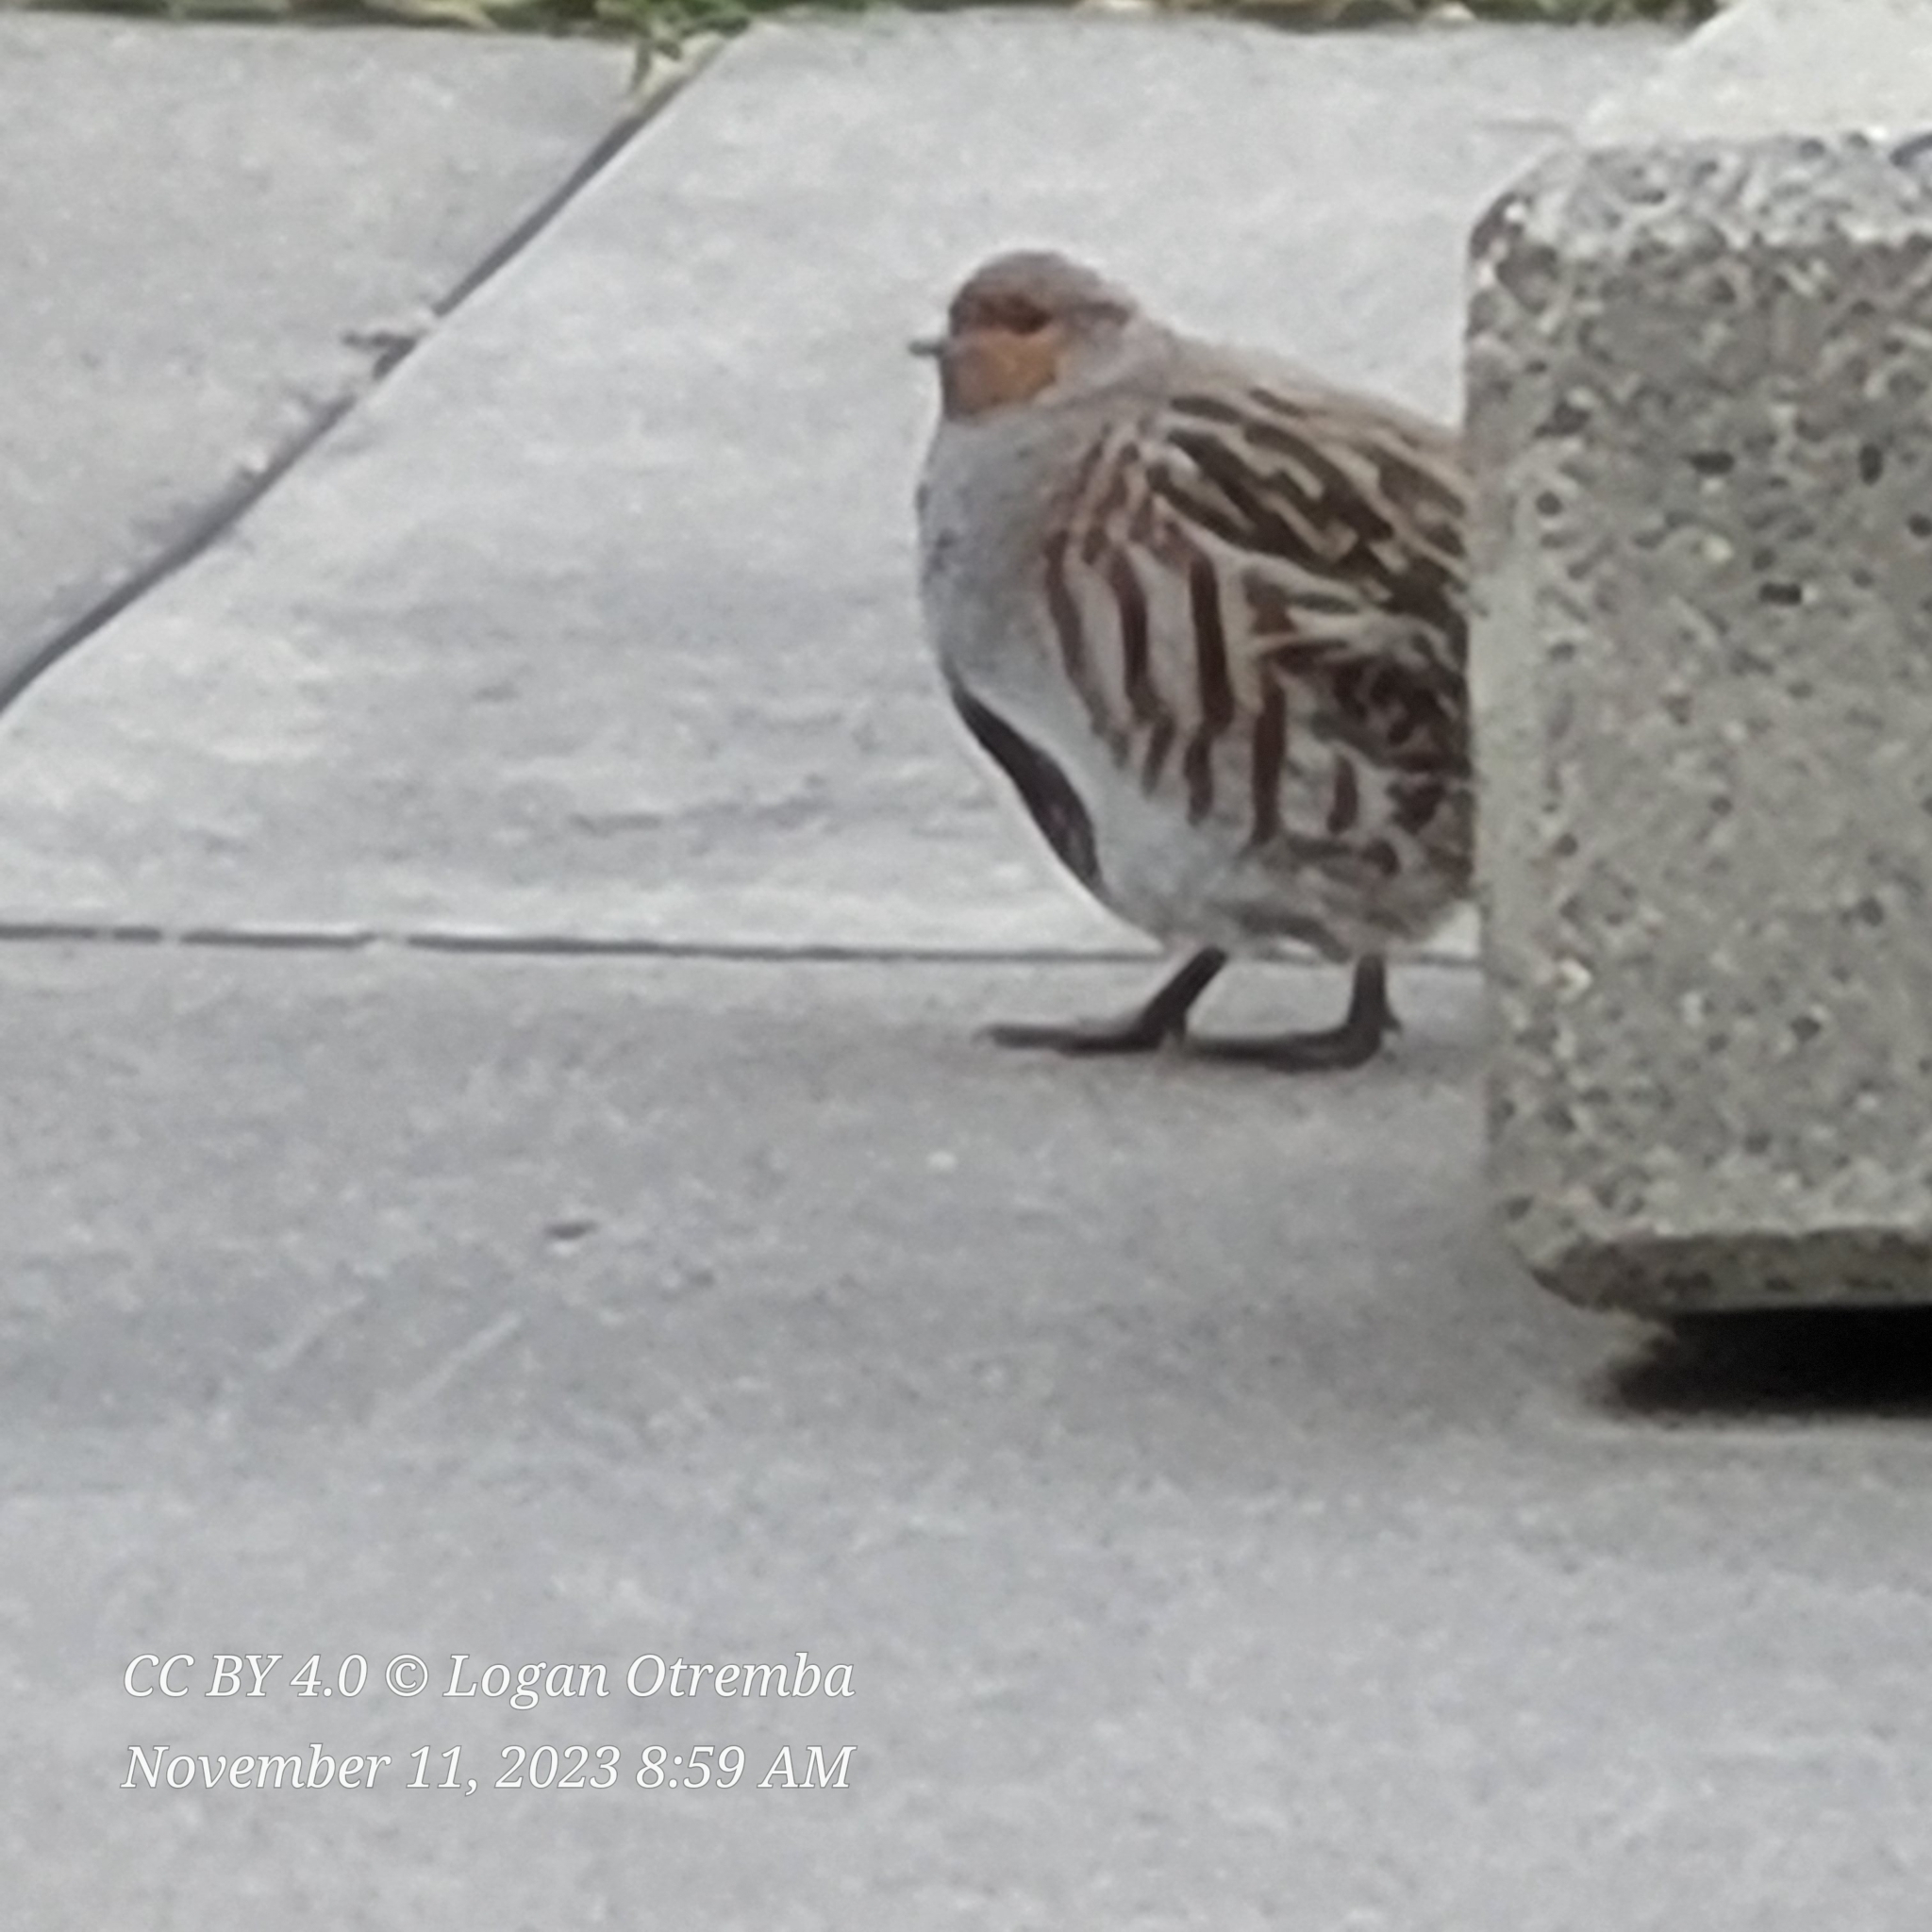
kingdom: Animalia
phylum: Chordata
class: Aves
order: Galliformes
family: Phasianidae
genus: Perdix
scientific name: Perdix perdix
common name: Grey partridge
